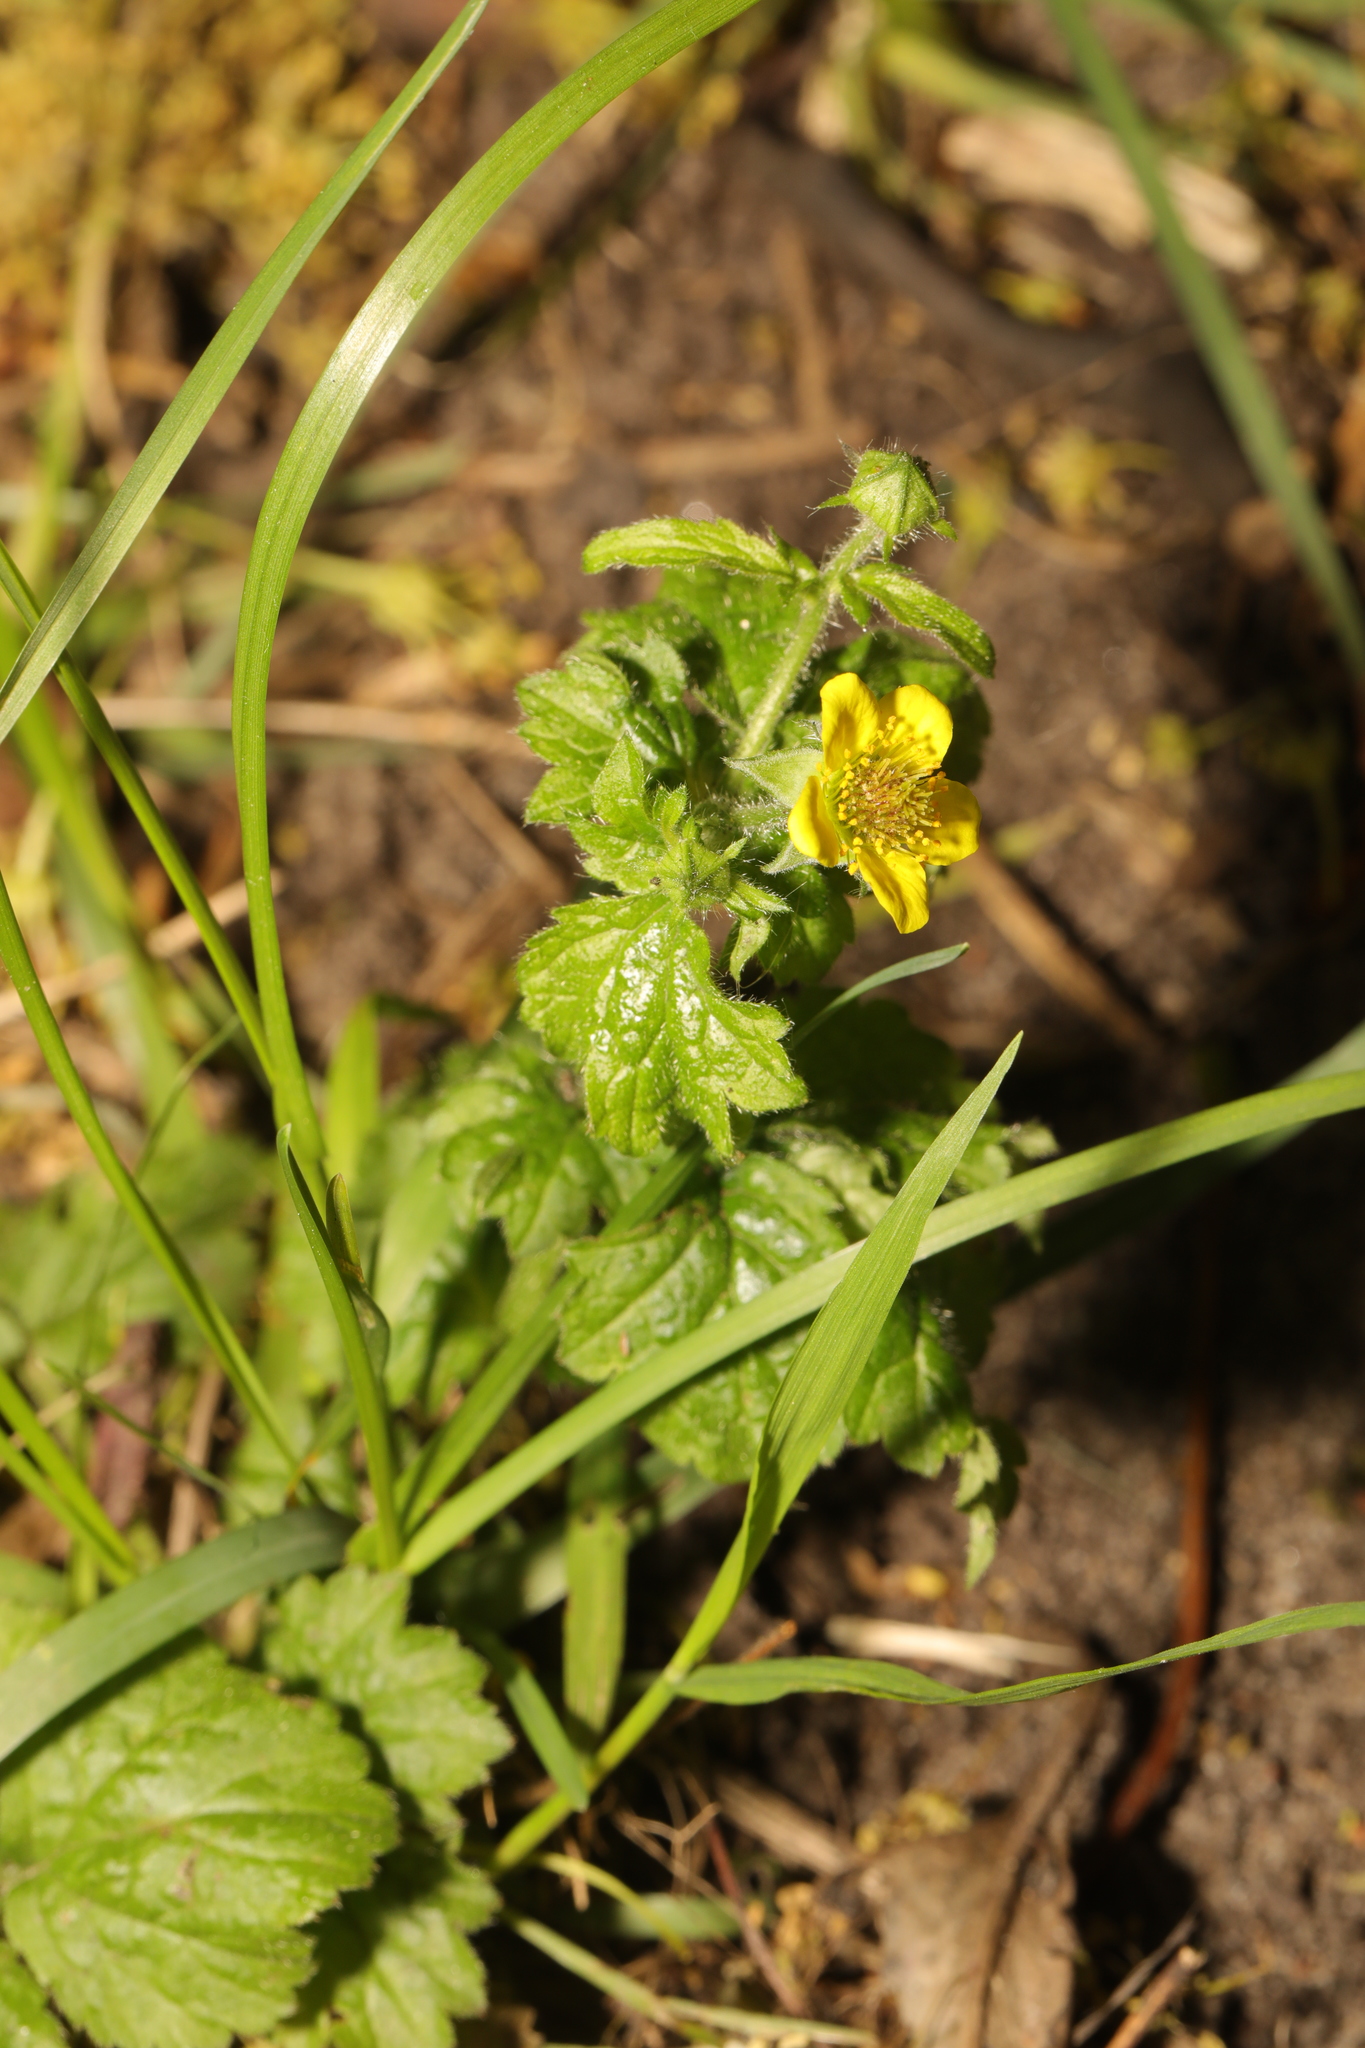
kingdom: Plantae
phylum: Tracheophyta
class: Magnoliopsida
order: Rosales
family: Rosaceae
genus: Geum
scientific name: Geum urbanum
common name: Wood avens
